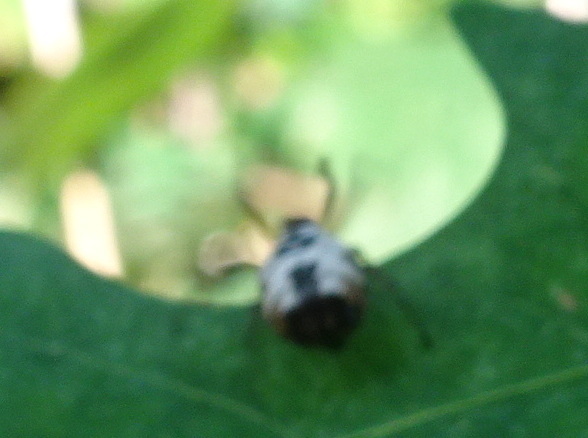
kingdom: Animalia
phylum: Arthropoda
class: Arachnida
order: Araneae
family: Araneidae
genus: Micrathena
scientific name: Micrathena mitrata
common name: Orb weavers
